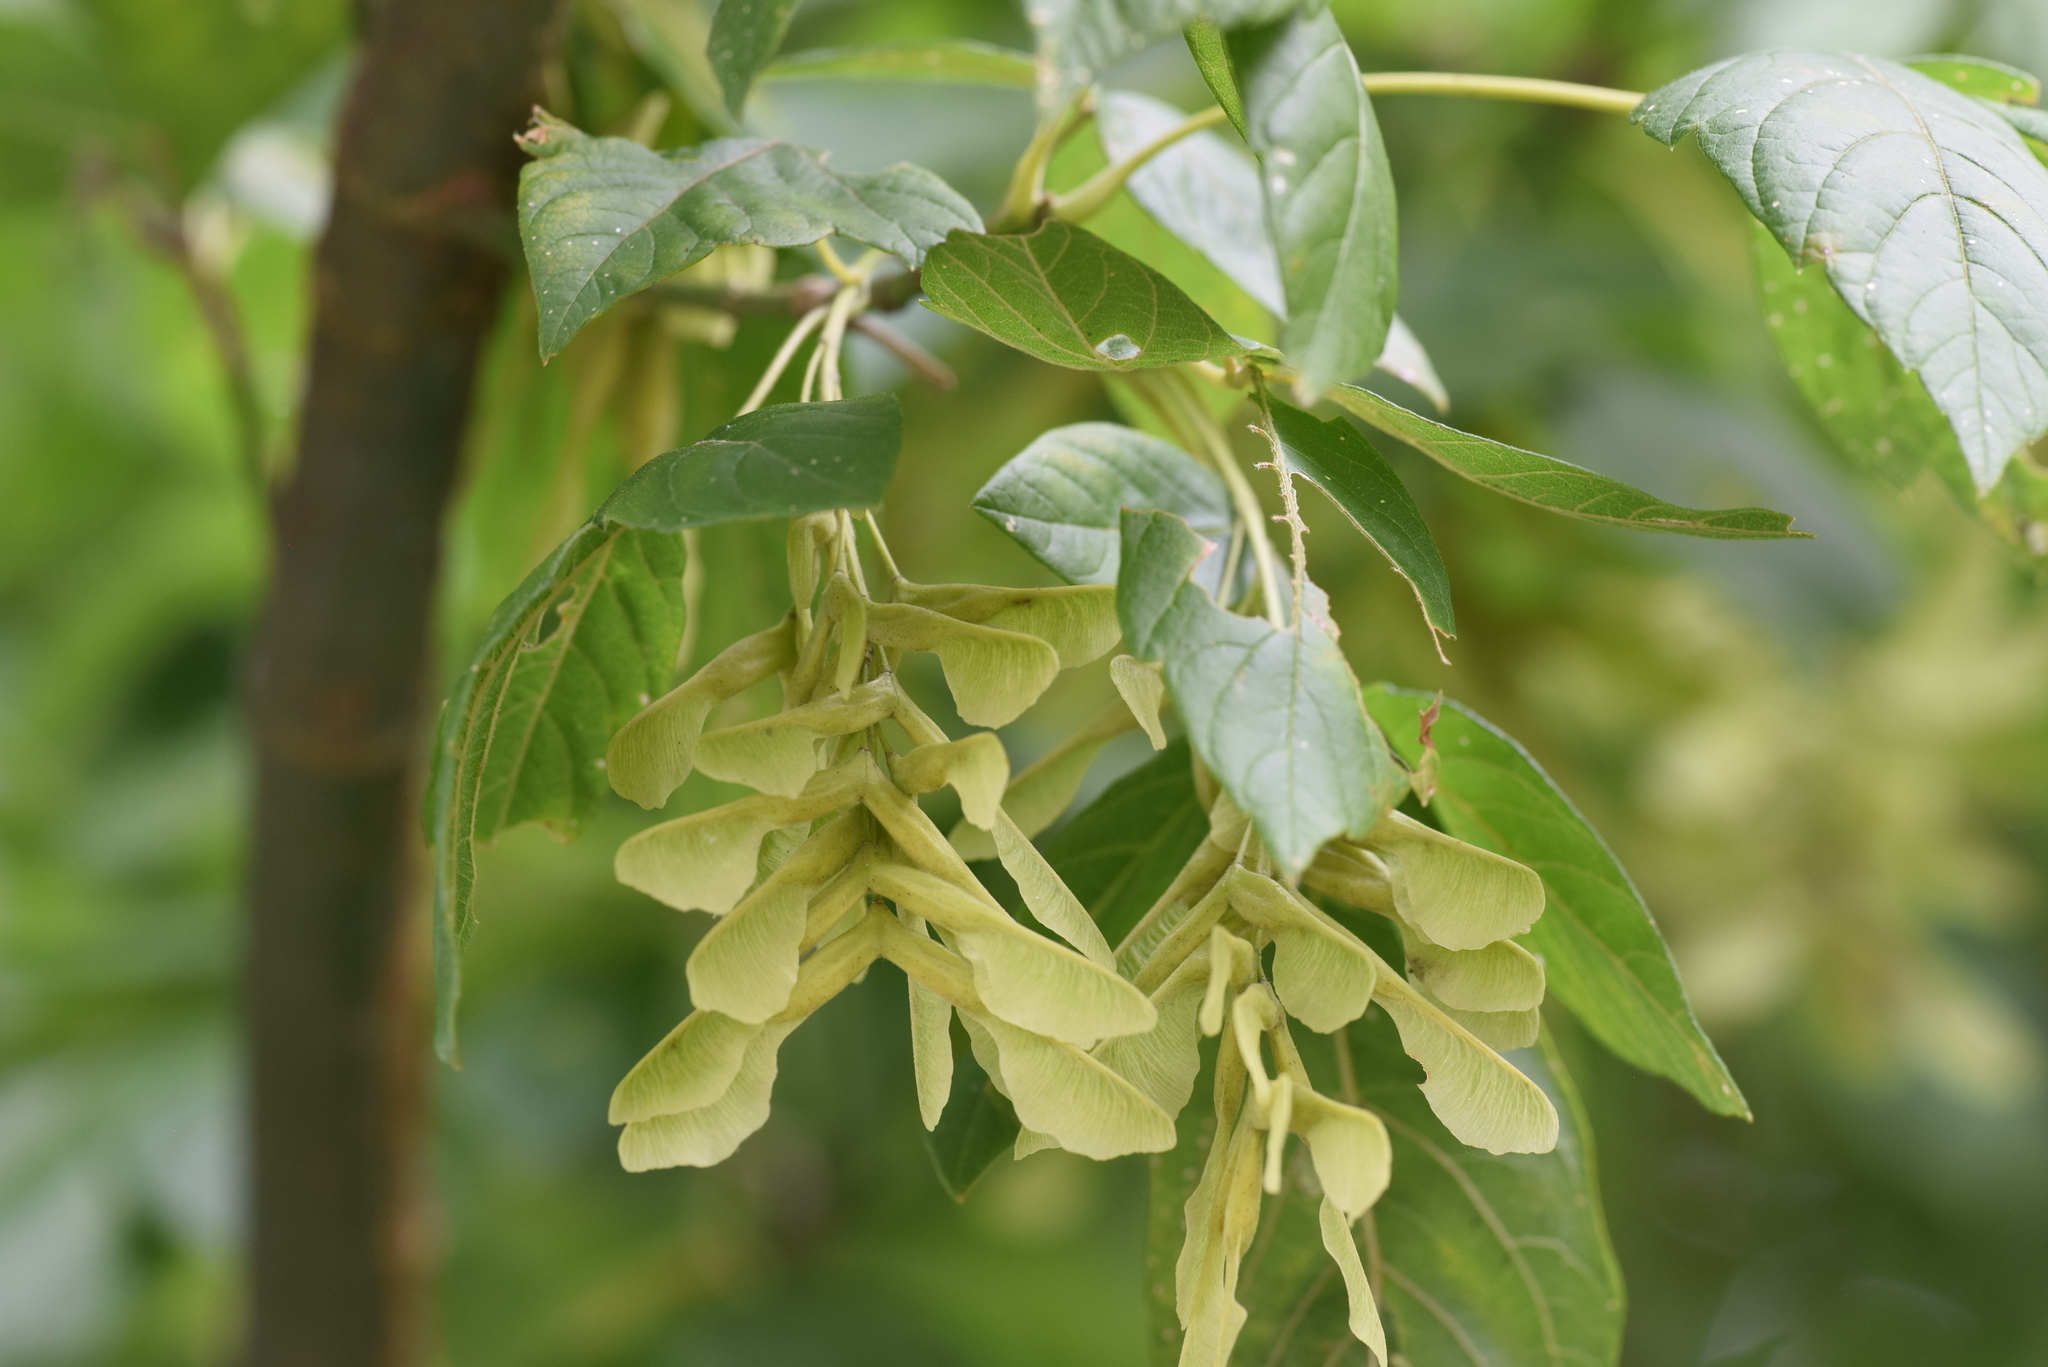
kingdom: Plantae
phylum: Tracheophyta
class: Magnoliopsida
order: Sapindales
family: Sapindaceae
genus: Acer
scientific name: Acer negundo
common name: Ashleaf maple
